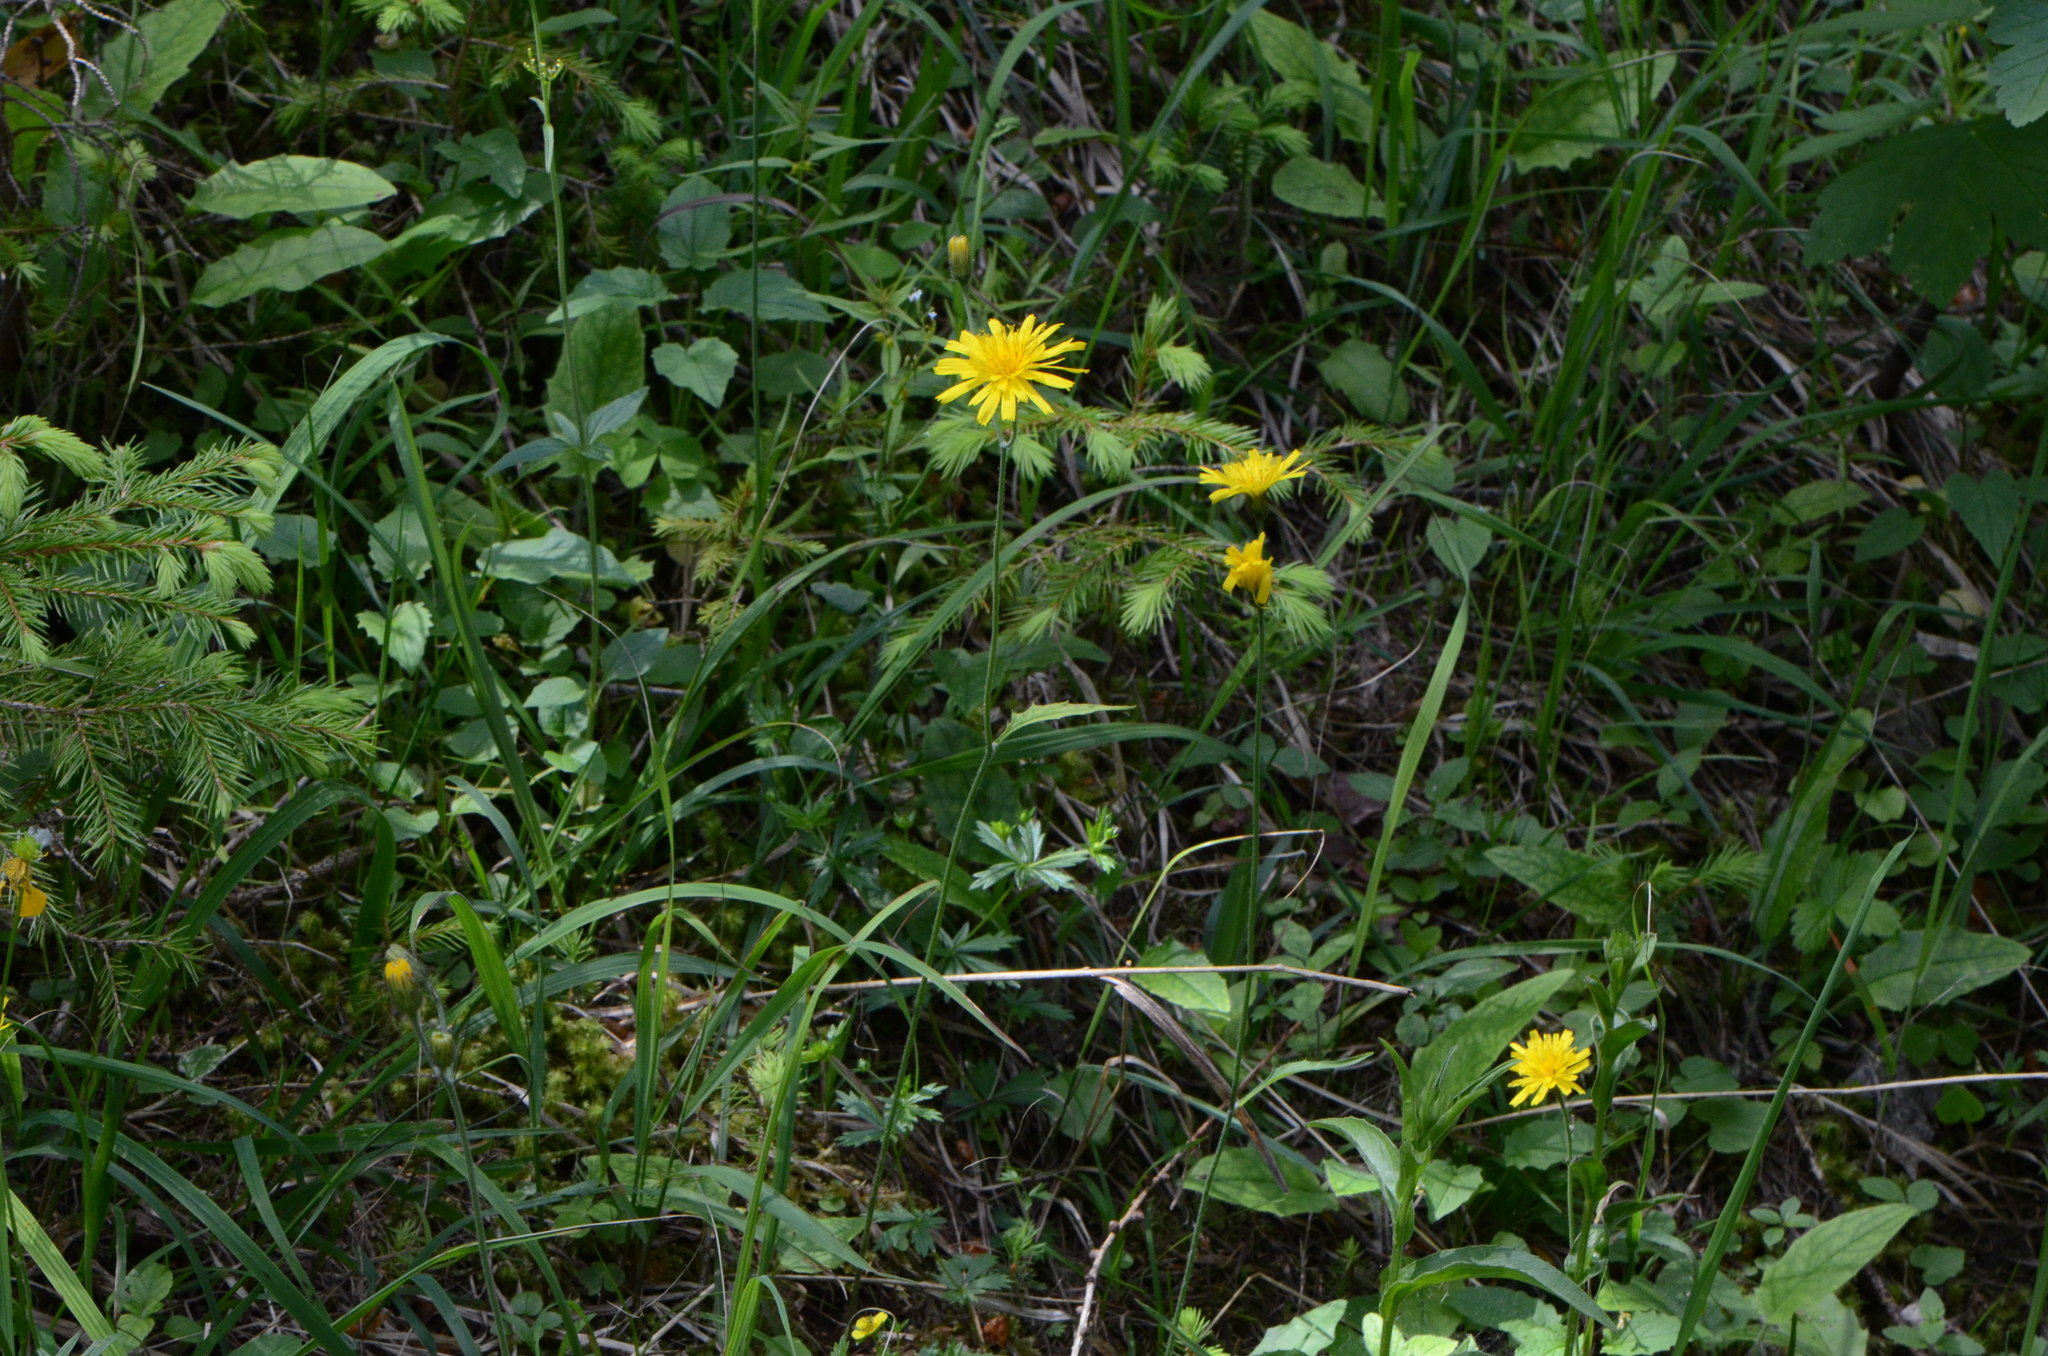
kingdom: Plantae
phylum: Tracheophyta
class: Magnoliopsida
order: Asterales
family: Asteraceae
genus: Hieracium
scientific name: Hieracium murorum
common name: Wall hawkweed
